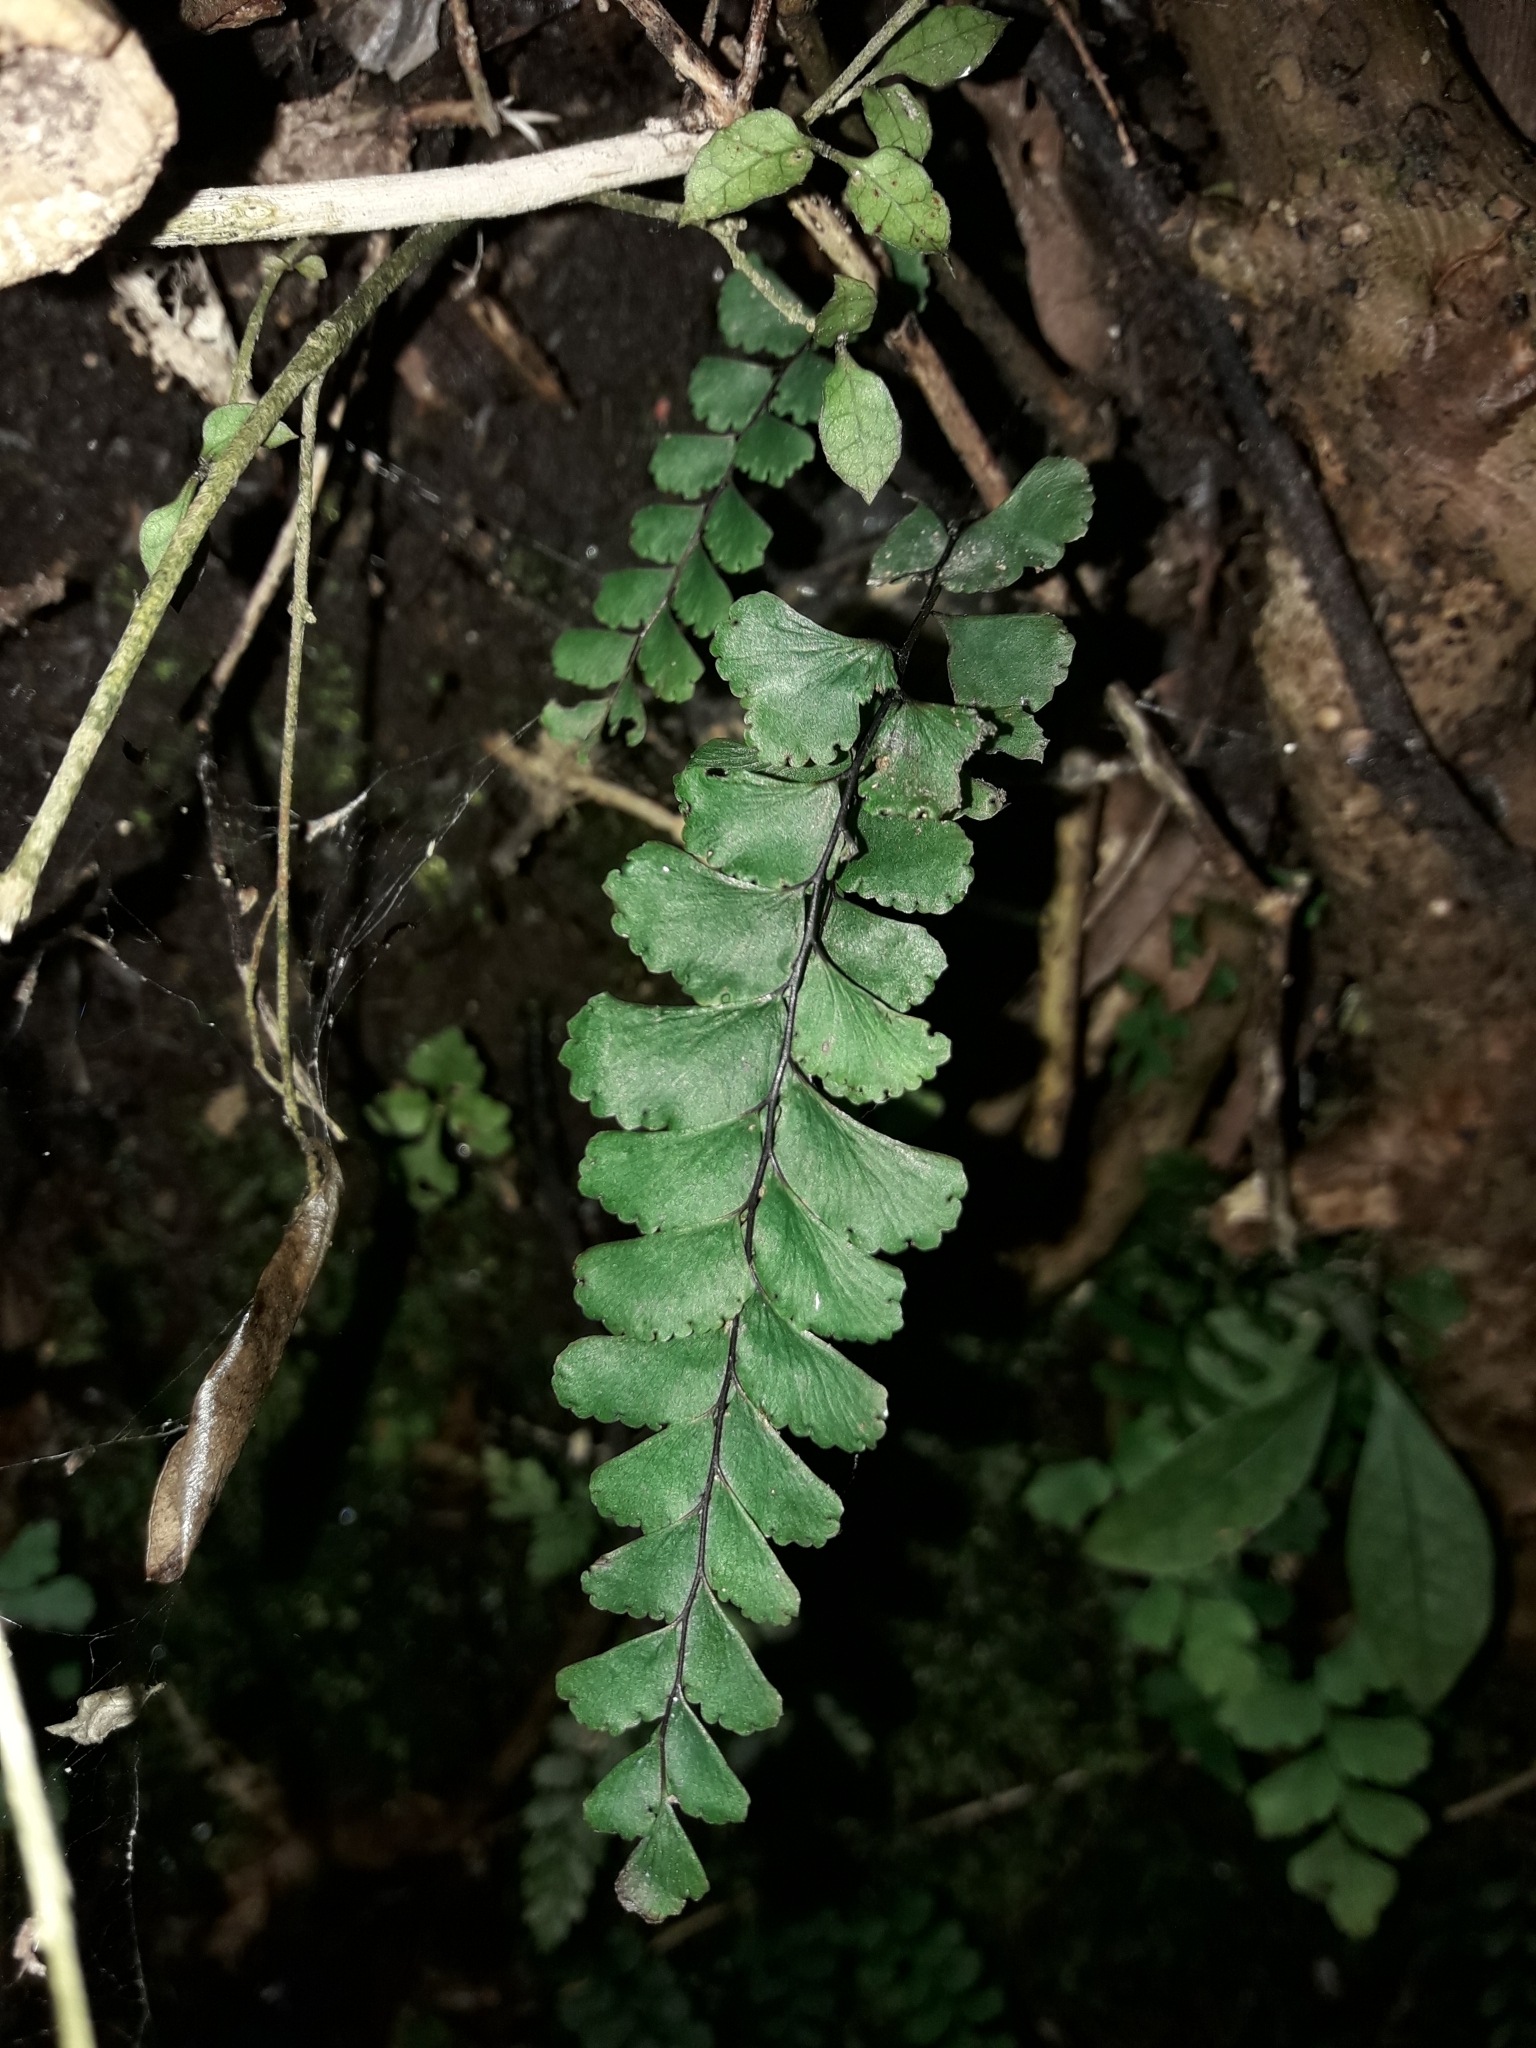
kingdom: Plantae
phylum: Tracheophyta
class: Polypodiopsida
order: Polypodiales
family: Pteridaceae
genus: Adiantum
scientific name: Adiantum diaphanum
